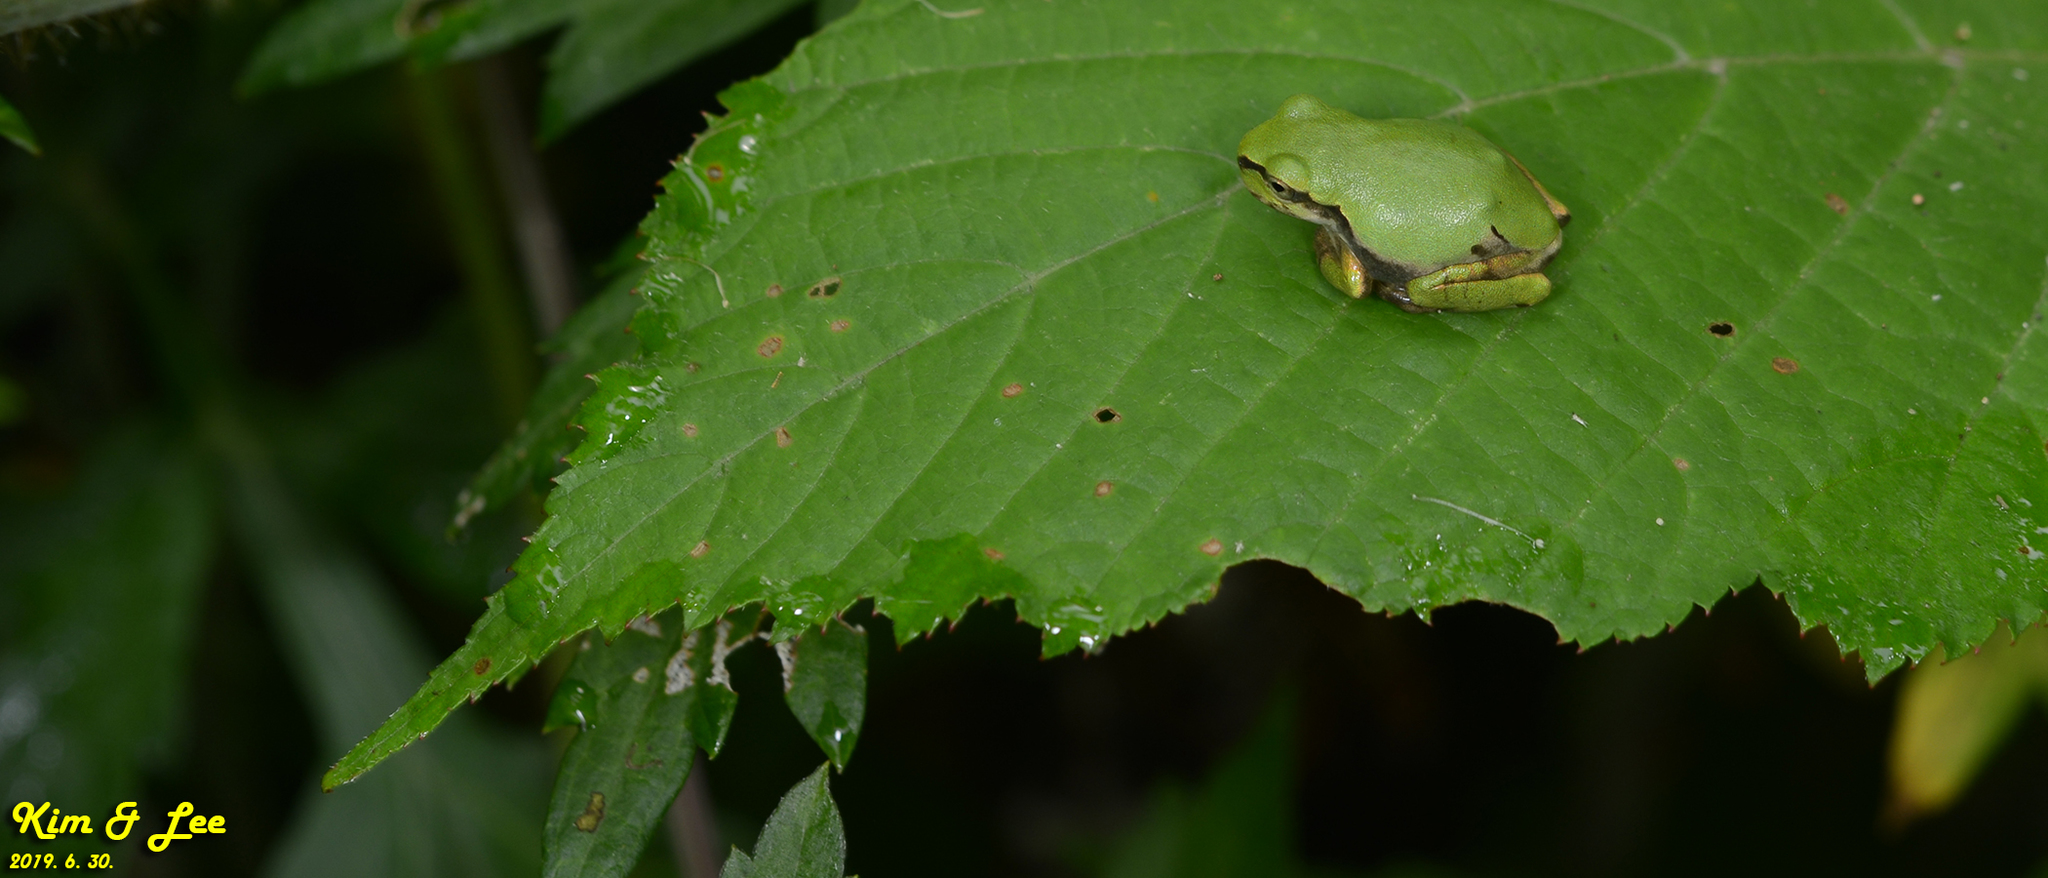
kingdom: Animalia
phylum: Chordata
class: Amphibia
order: Anura
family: Hylidae
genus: Dryophytes
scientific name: Dryophytes japonicus
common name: Japanese treefrog
